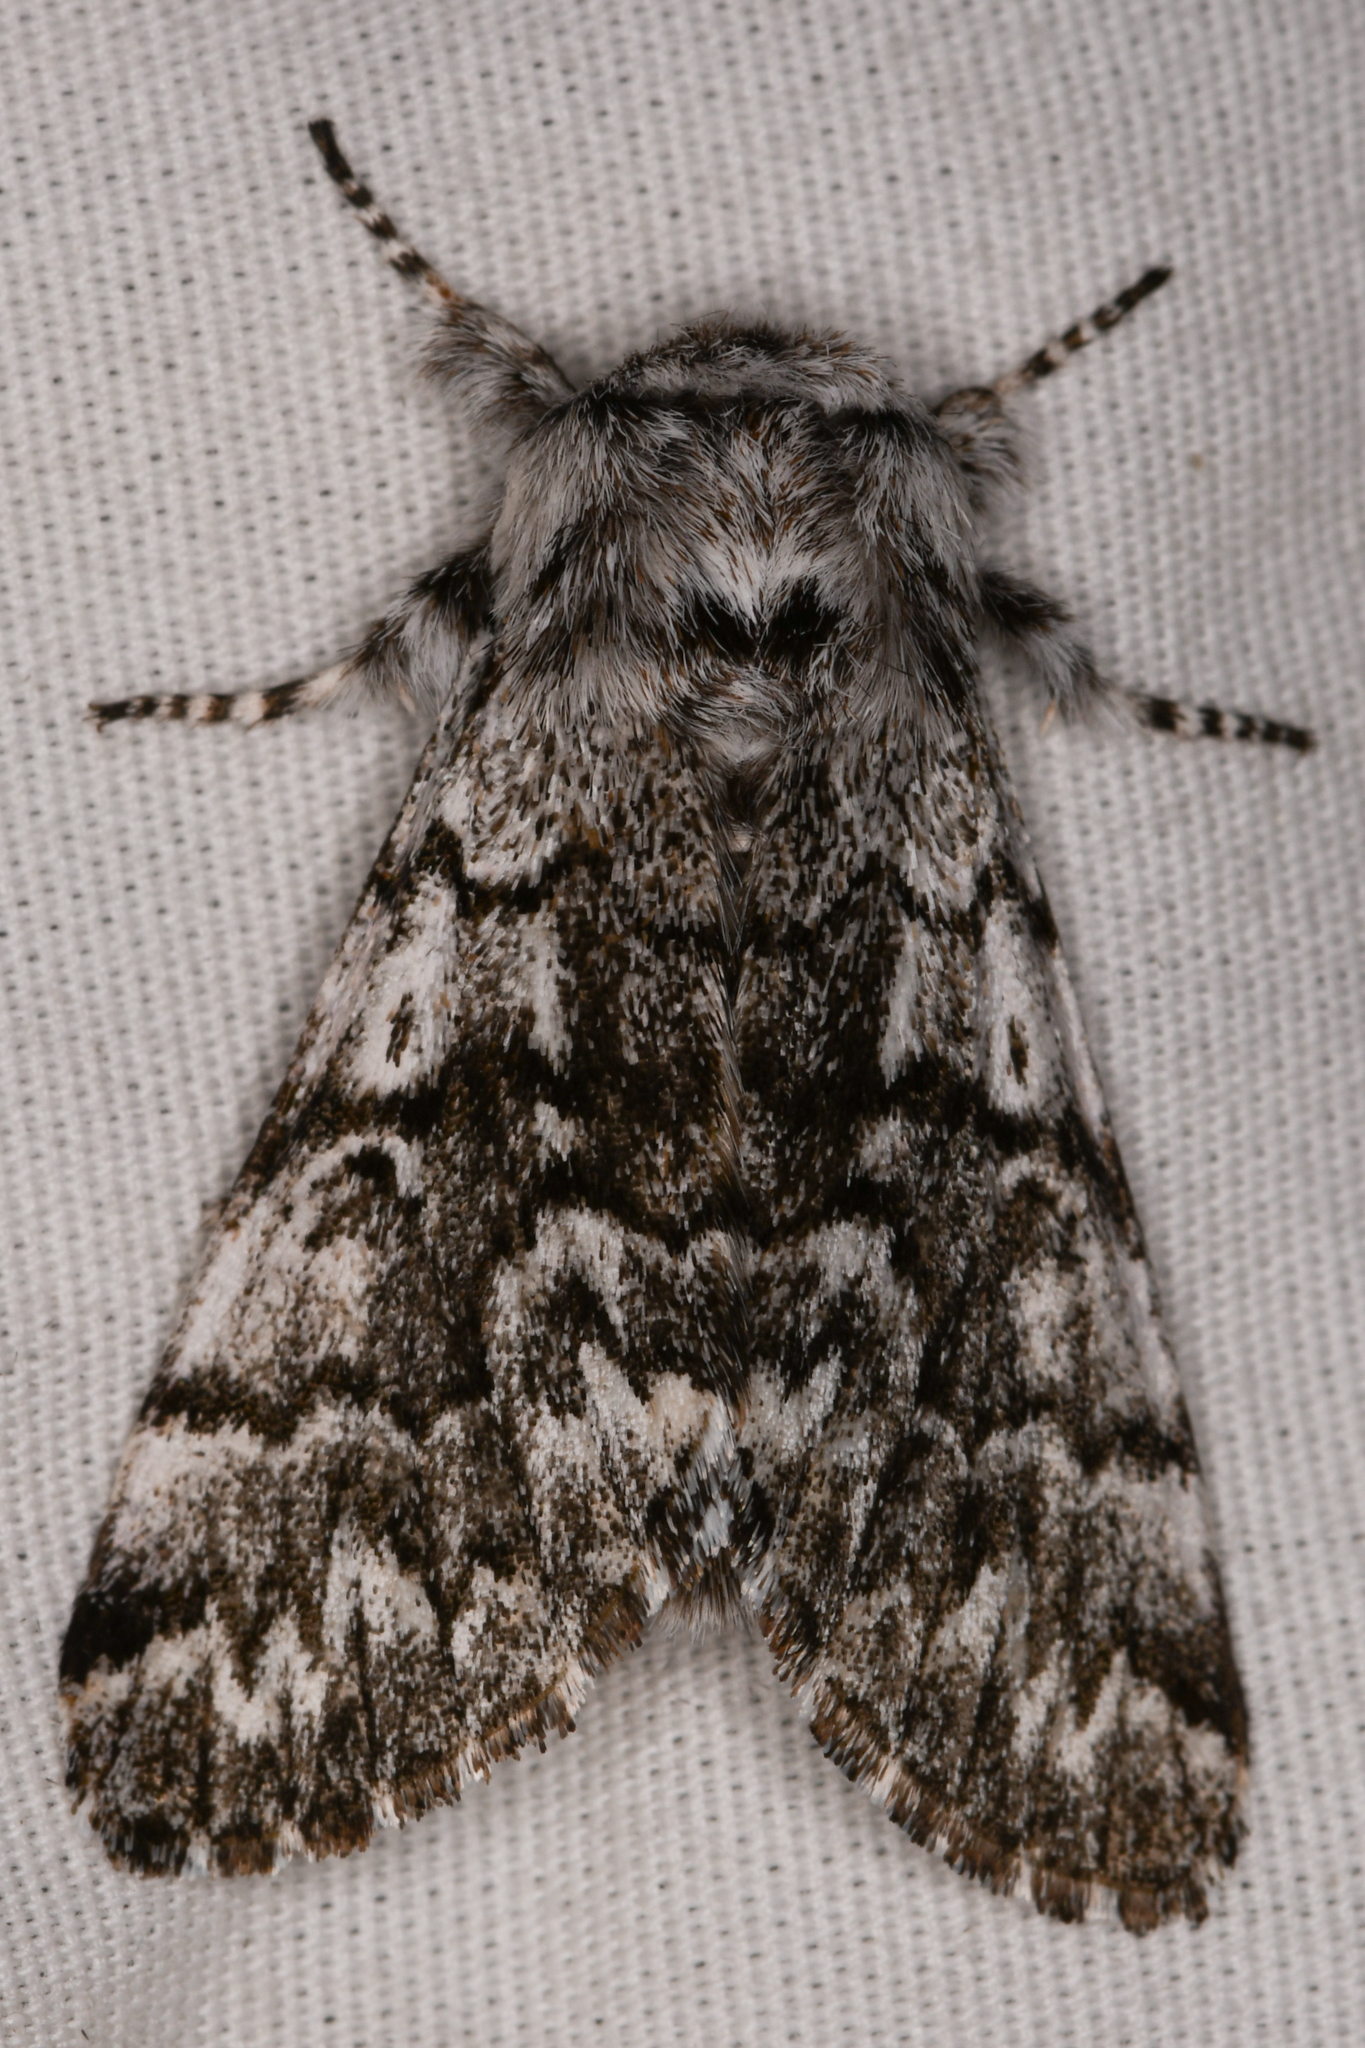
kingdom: Animalia
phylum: Arthropoda
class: Insecta
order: Lepidoptera
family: Noctuidae
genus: Panthea
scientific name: Panthea virginarius
